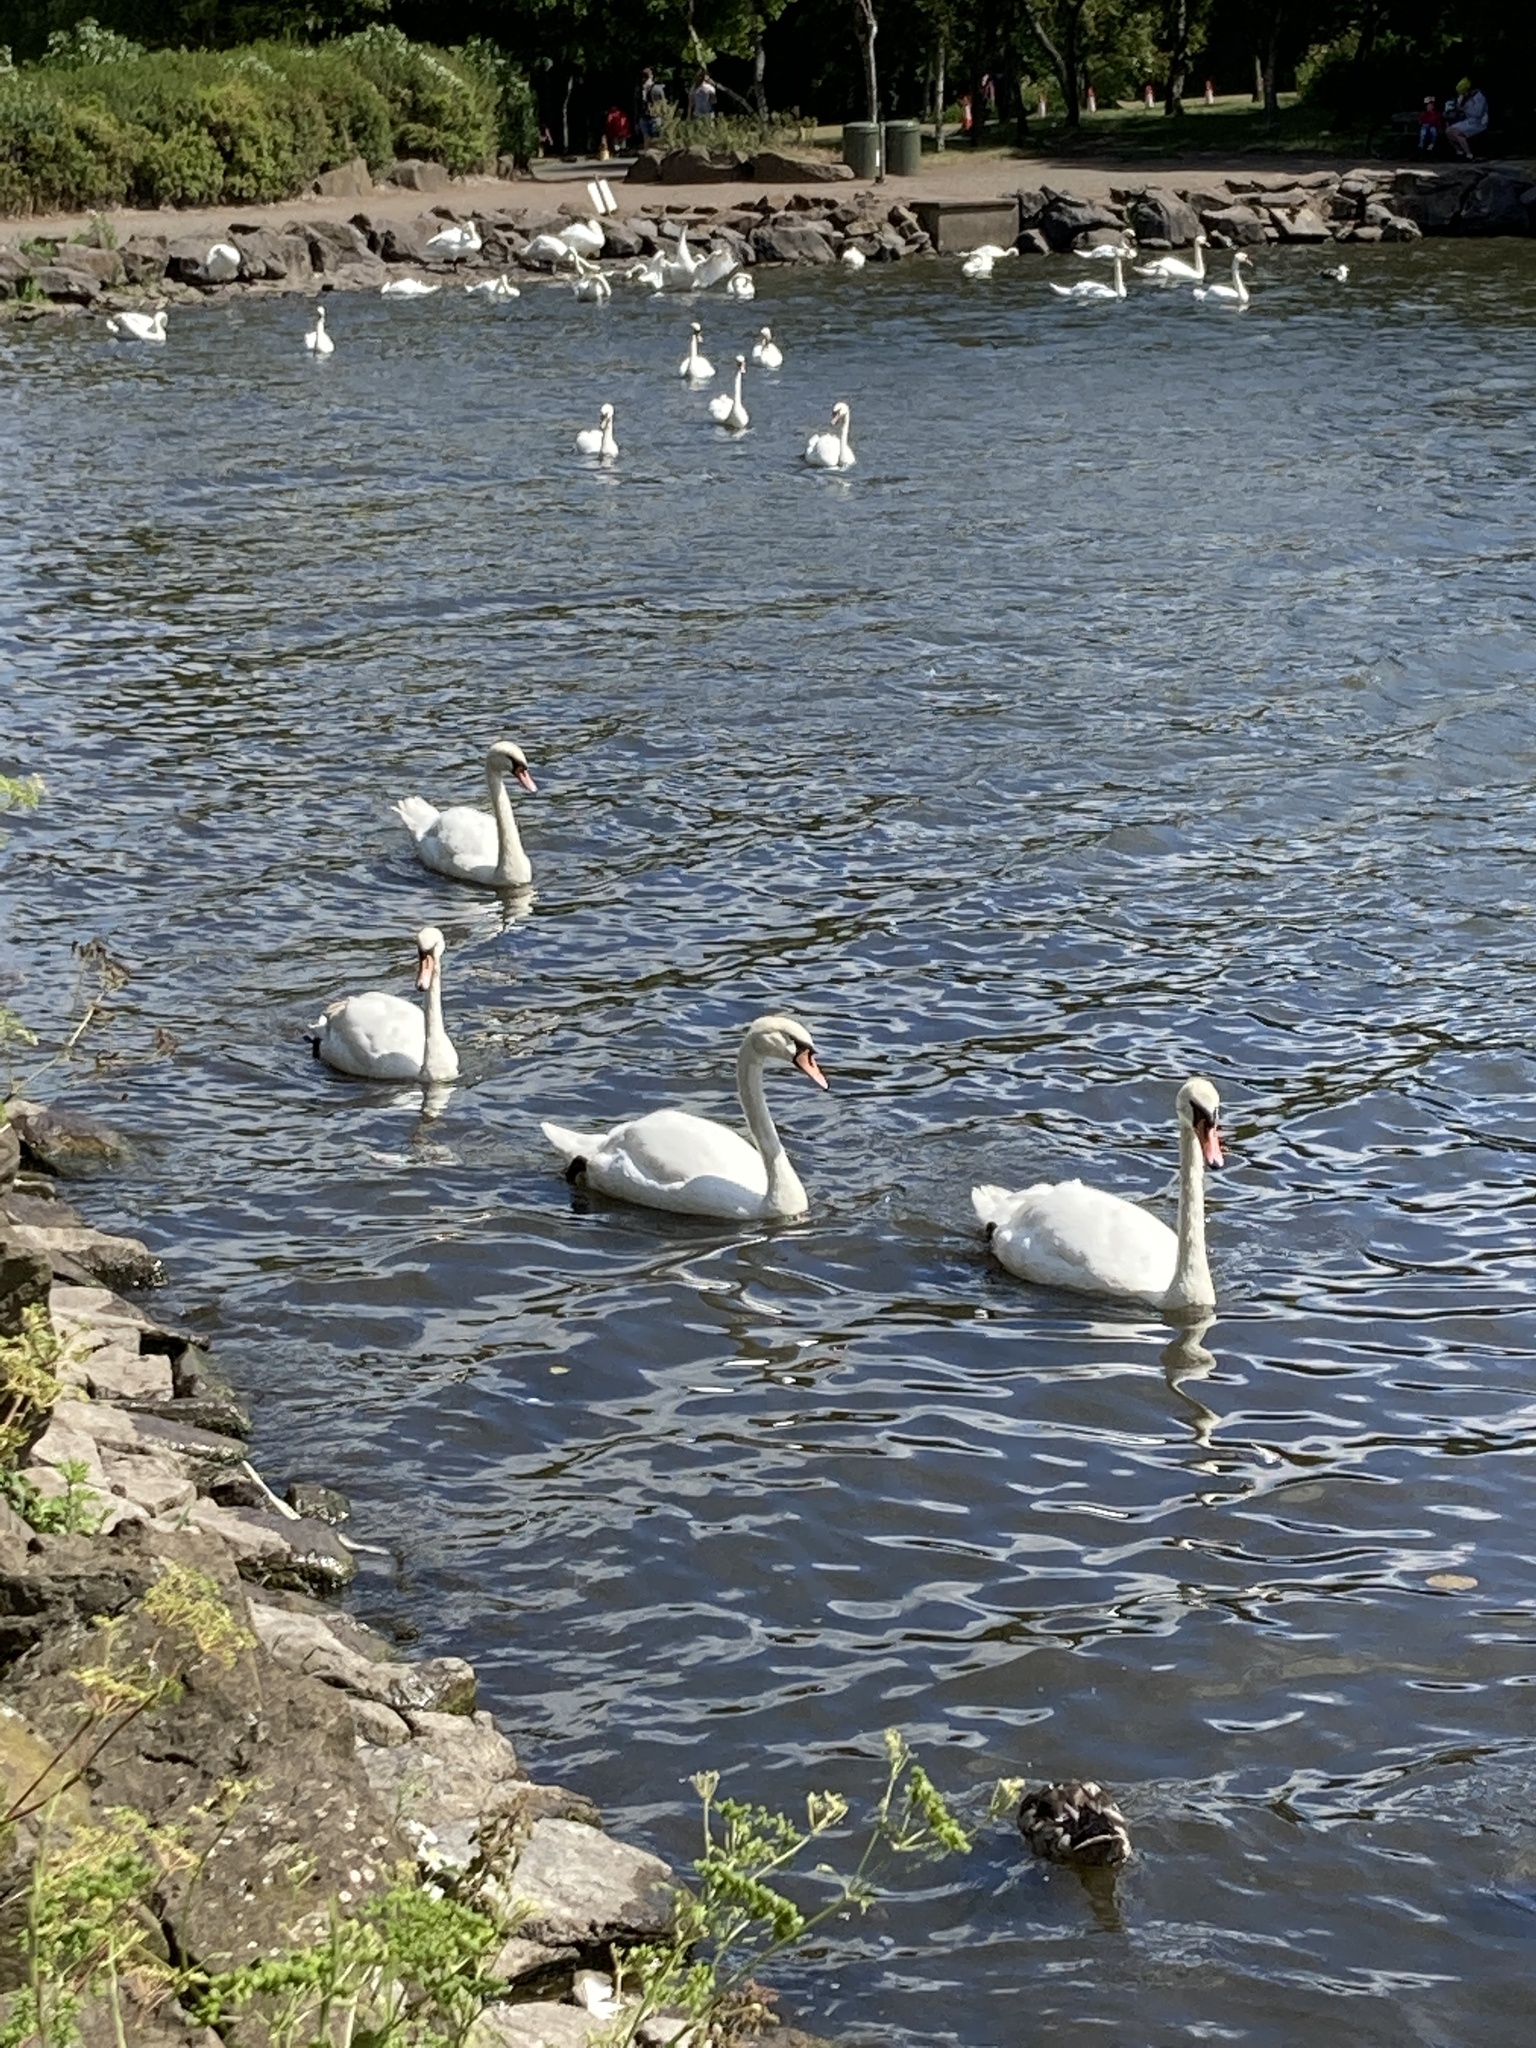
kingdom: Animalia
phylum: Chordata
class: Aves
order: Anseriformes
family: Anatidae
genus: Cygnus
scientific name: Cygnus olor
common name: Mute swan
